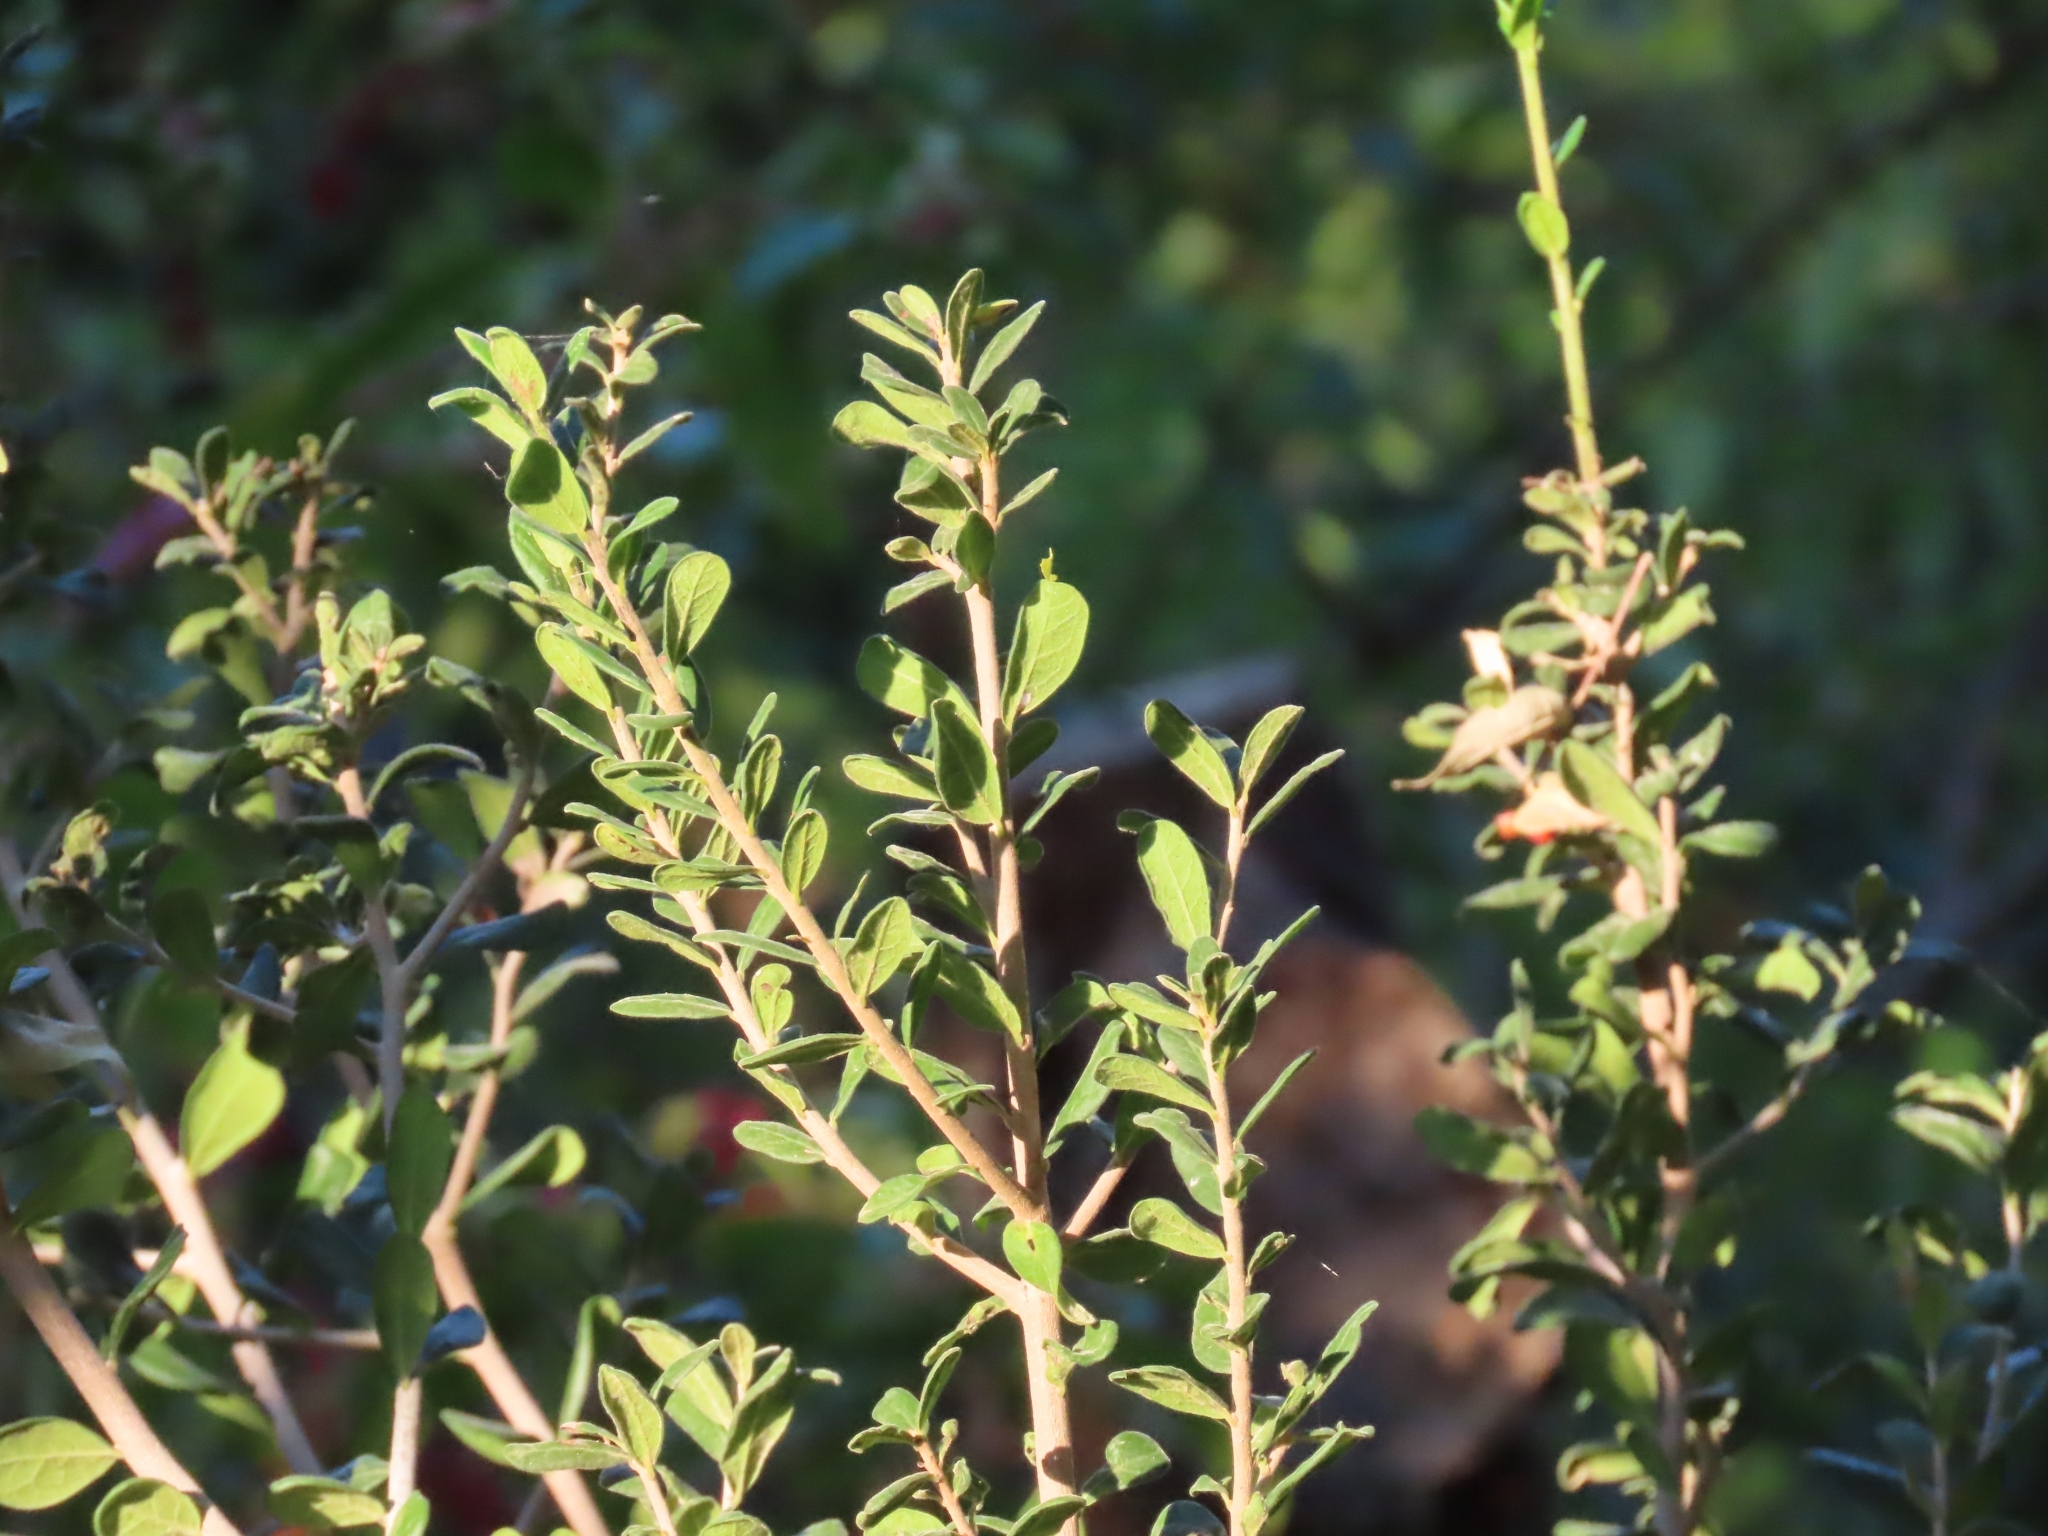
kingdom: Plantae
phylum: Tracheophyta
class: Magnoliopsida
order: Ericales
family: Ebenaceae
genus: Diospyros
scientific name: Diospyros texana
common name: Texas persimmon
